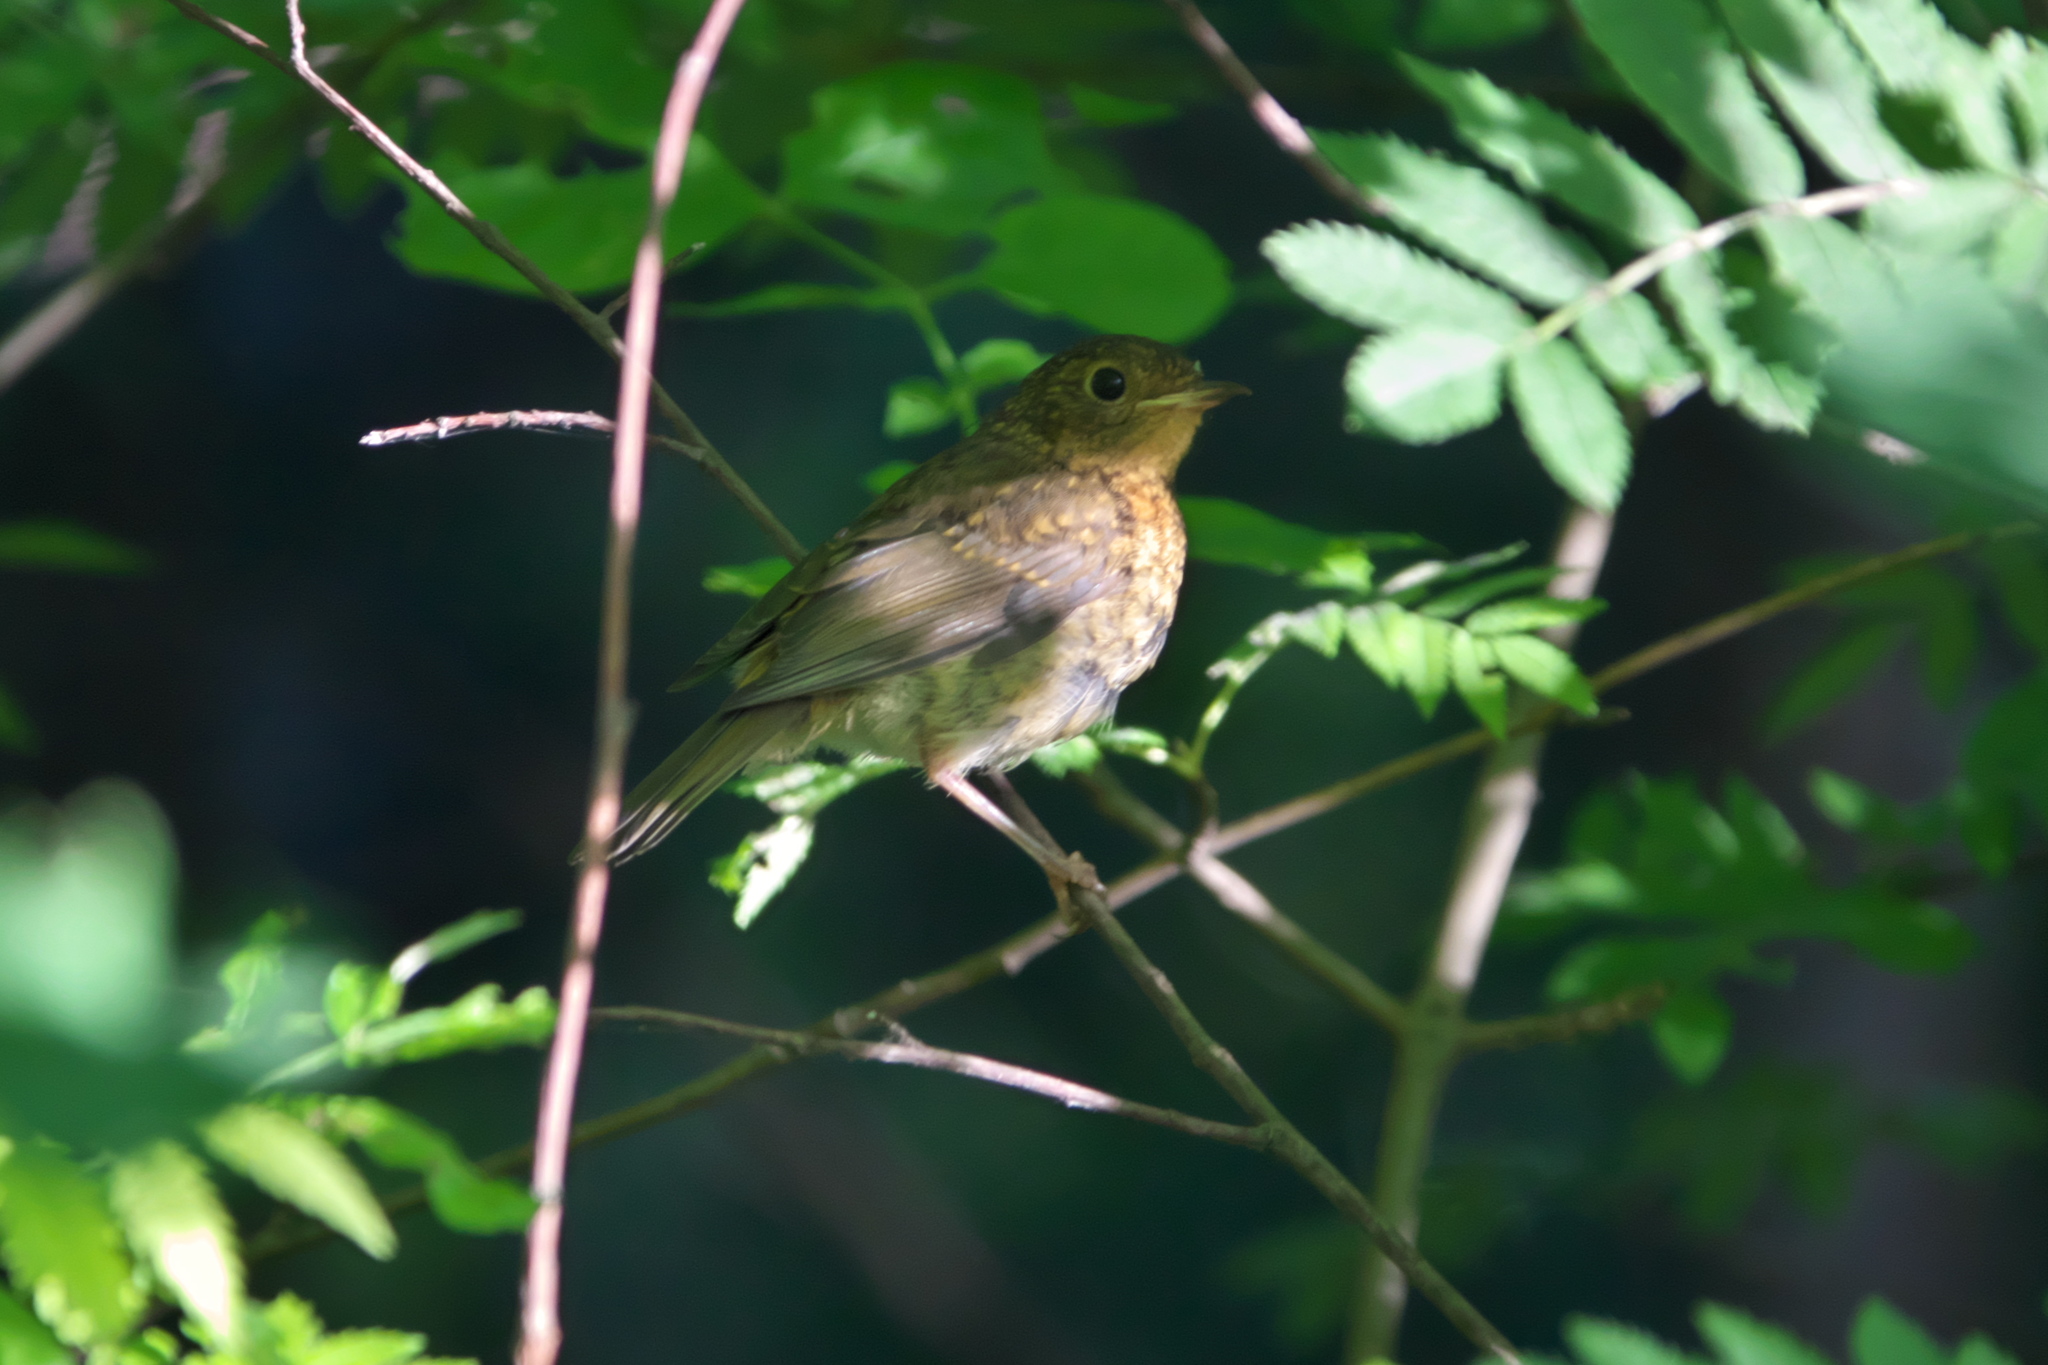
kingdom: Animalia
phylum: Chordata
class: Aves
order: Passeriformes
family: Muscicapidae
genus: Erithacus
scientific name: Erithacus rubecula
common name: European robin
